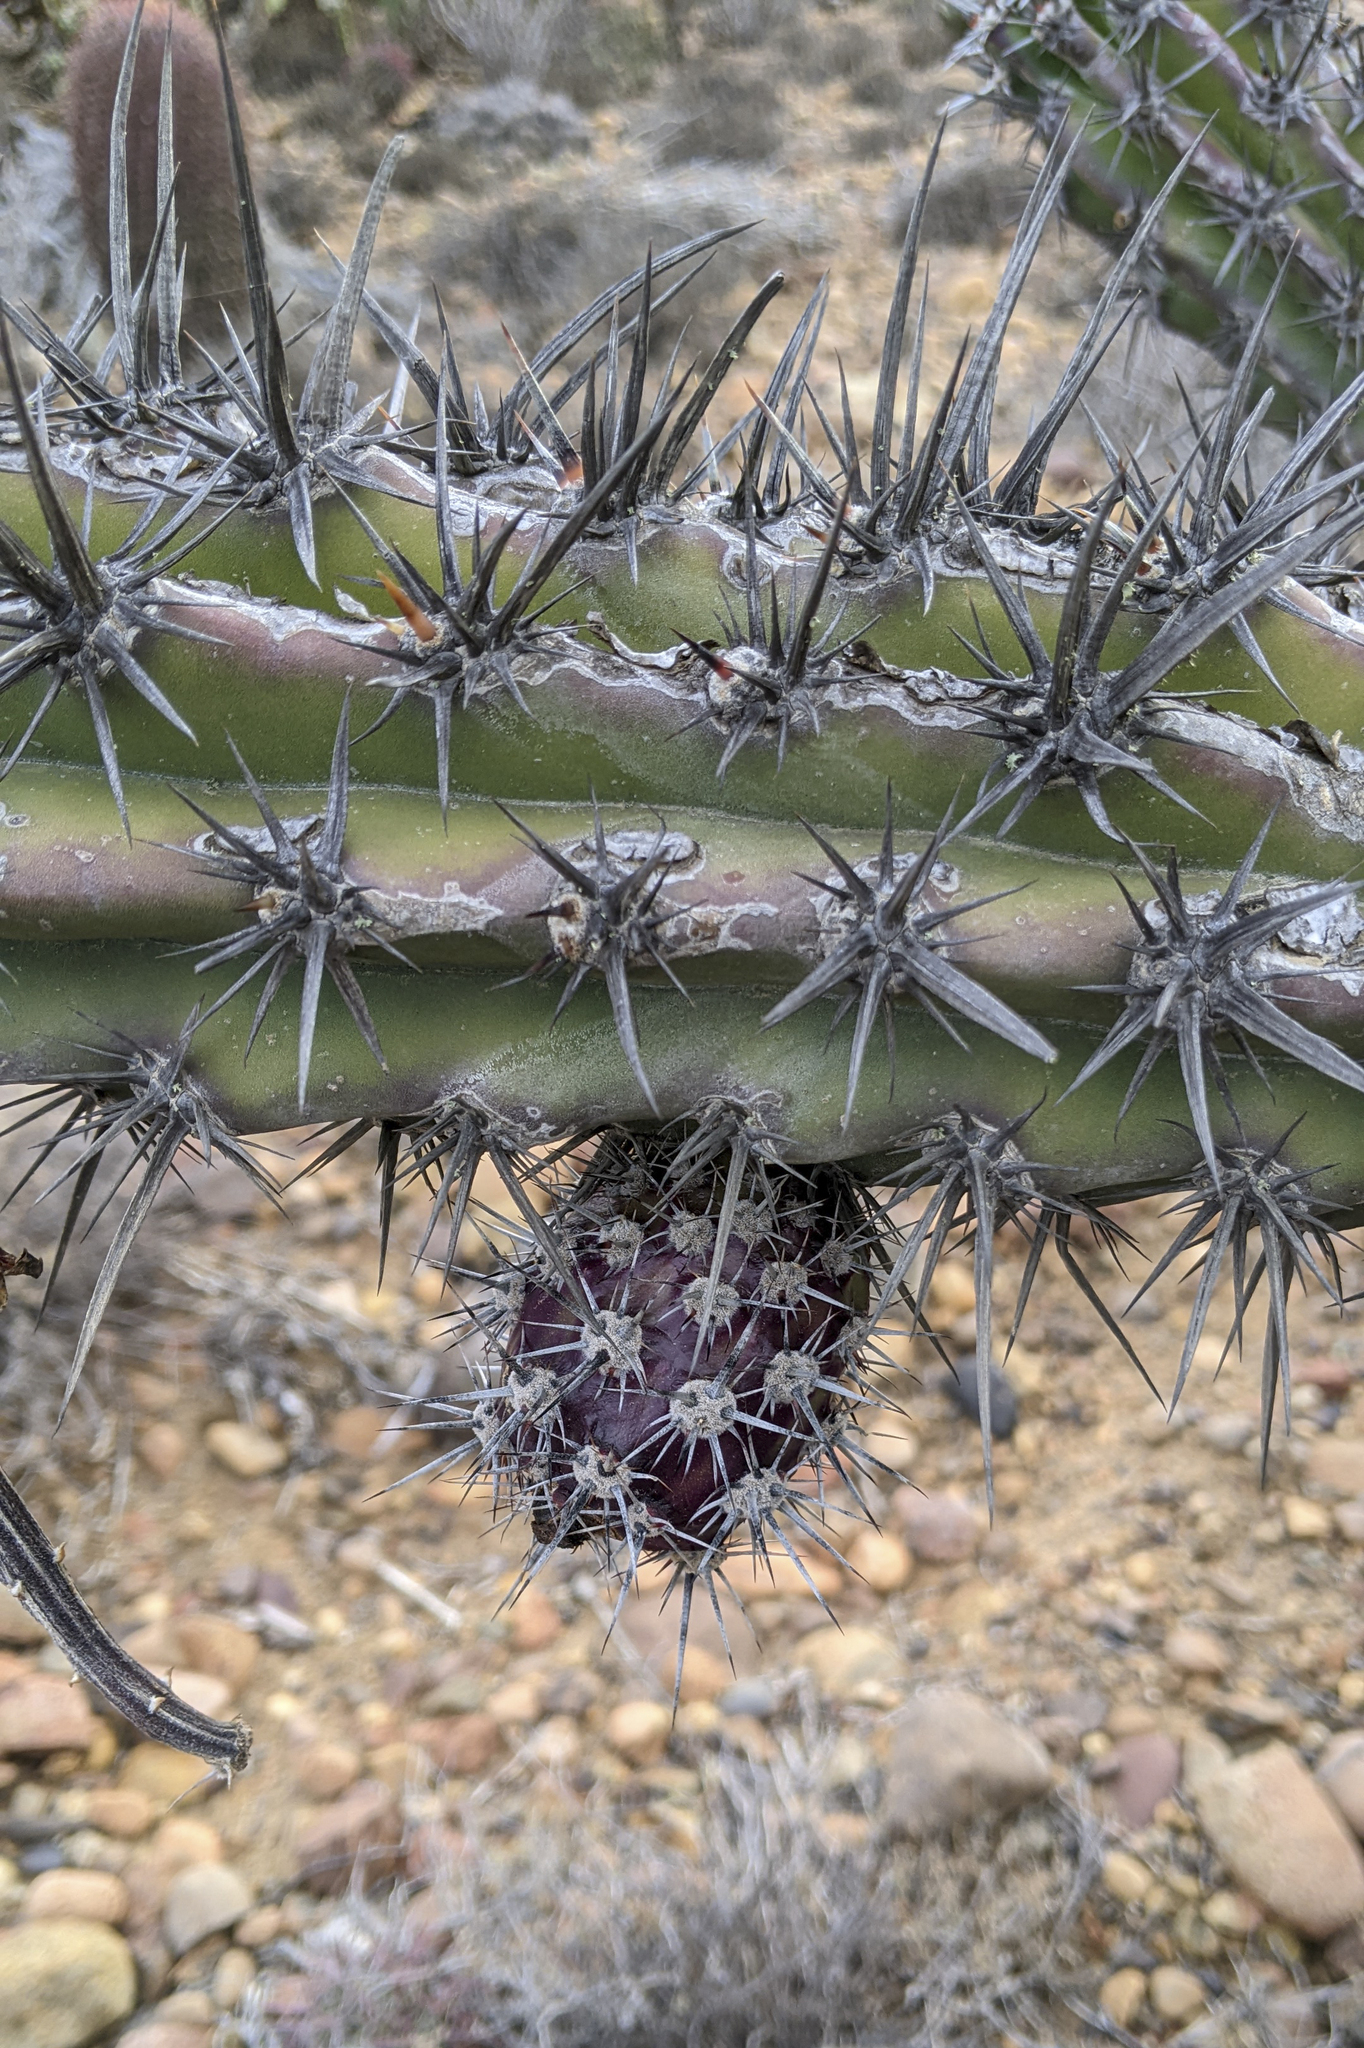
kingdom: Plantae
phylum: Tracheophyta
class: Magnoliopsida
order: Caryophyllales
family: Cactaceae
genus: Stenocereus
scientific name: Stenocereus gummosus
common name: Dagger cactus
